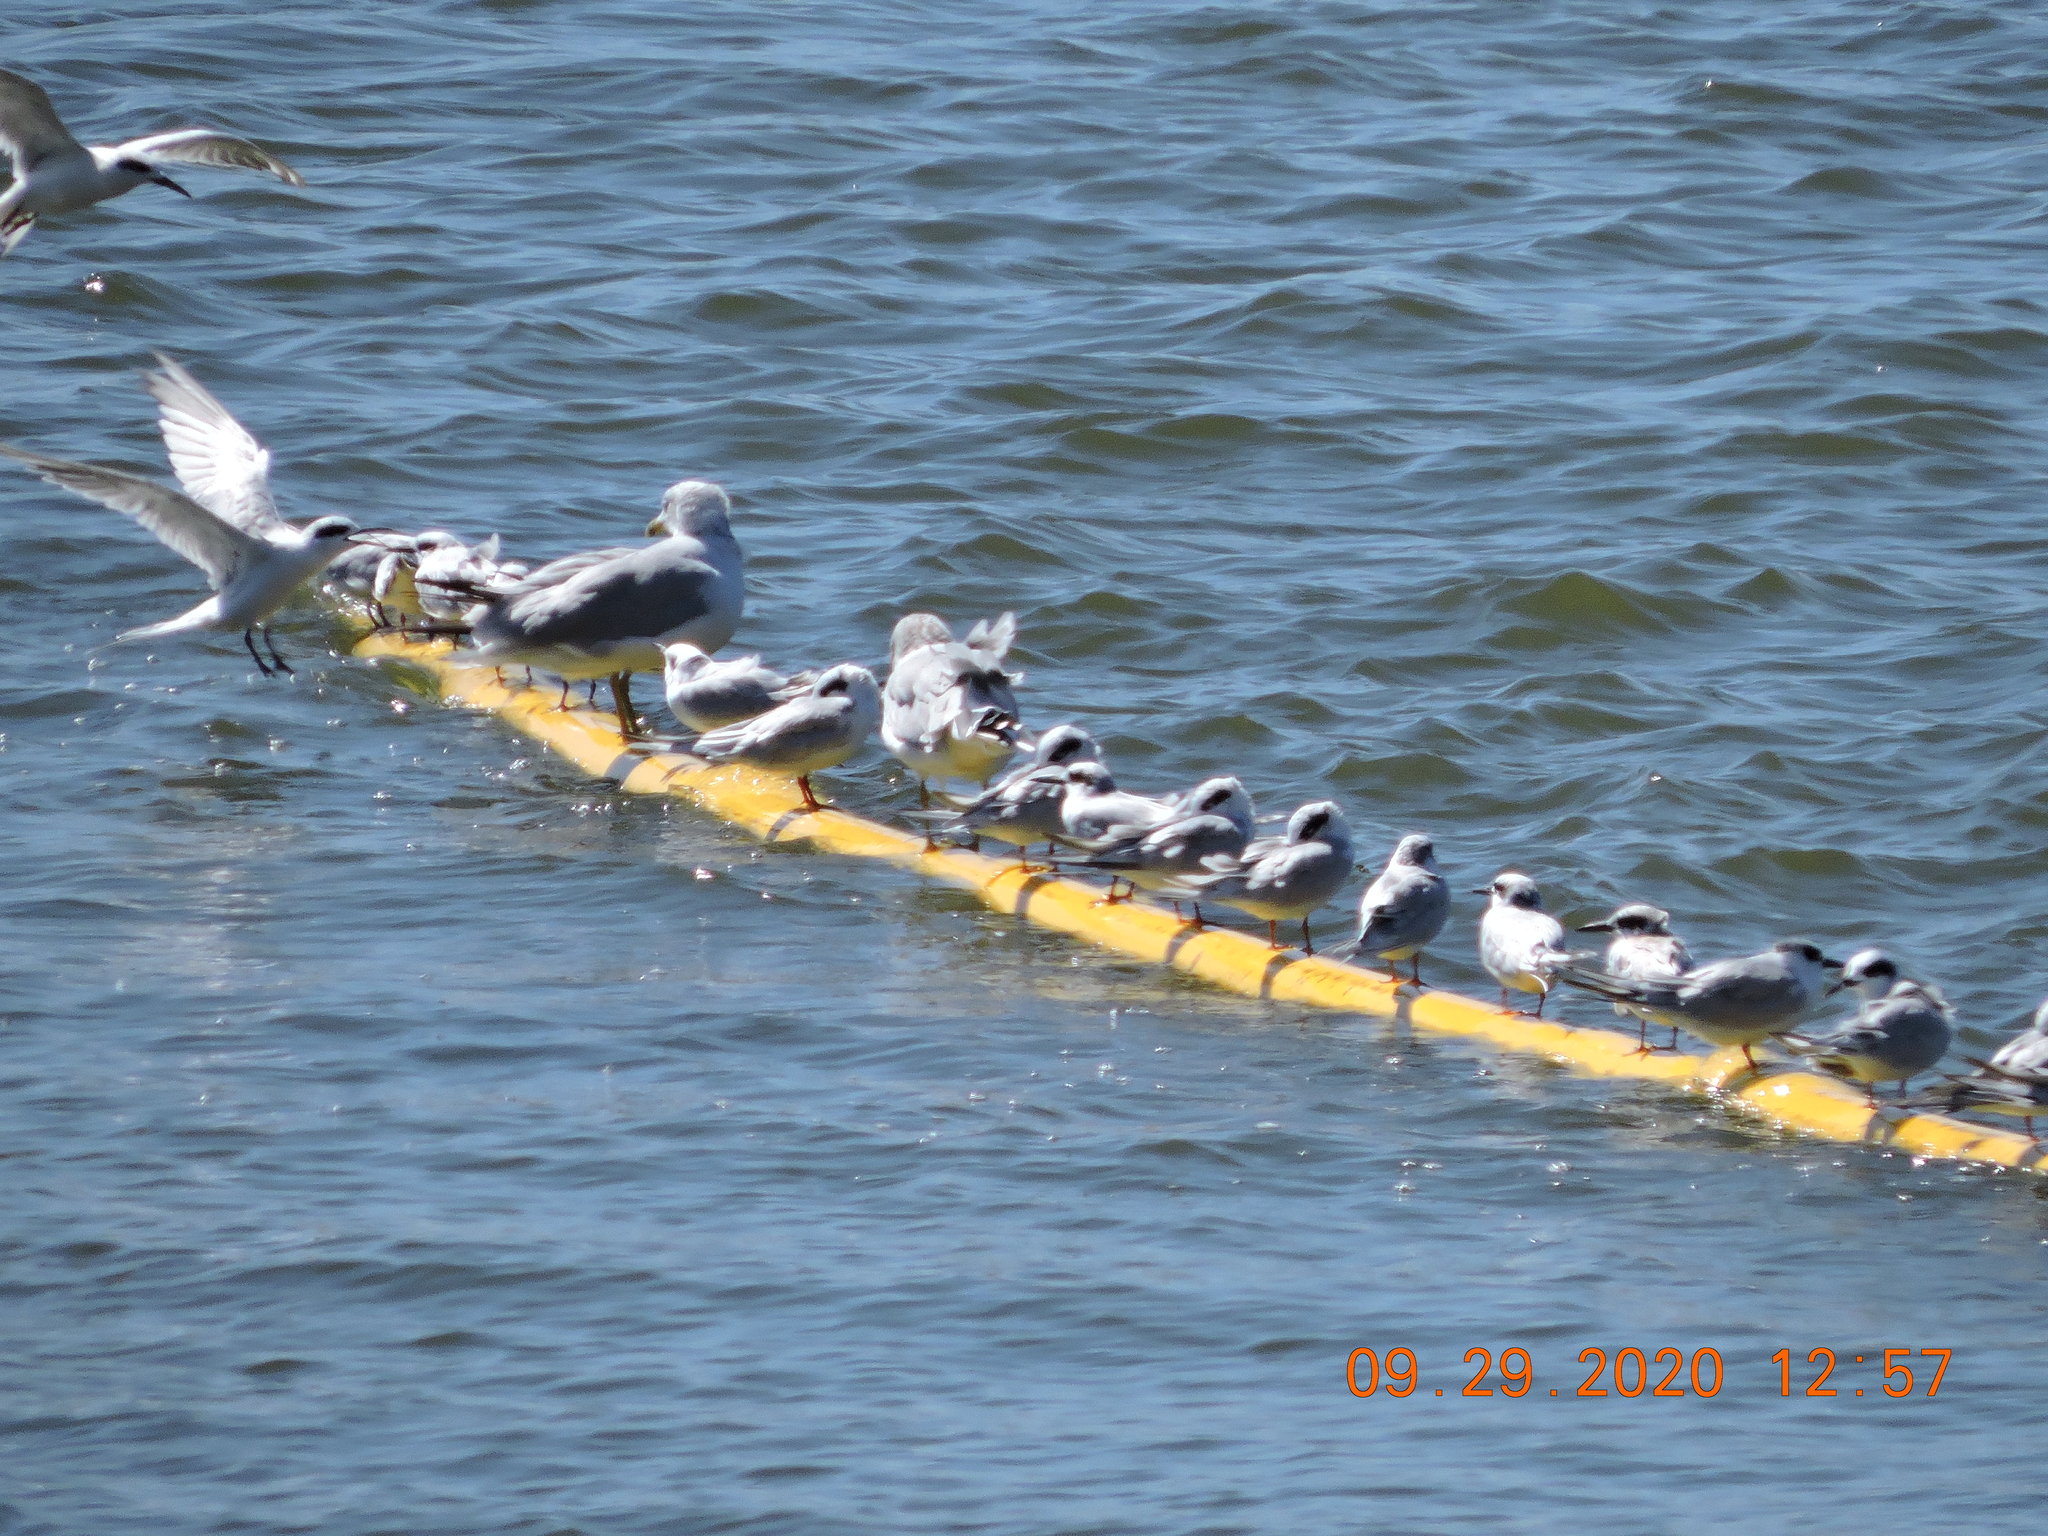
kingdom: Animalia
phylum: Chordata
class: Aves
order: Charadriiformes
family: Laridae
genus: Sterna
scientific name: Sterna forsteri
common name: Forster's tern
